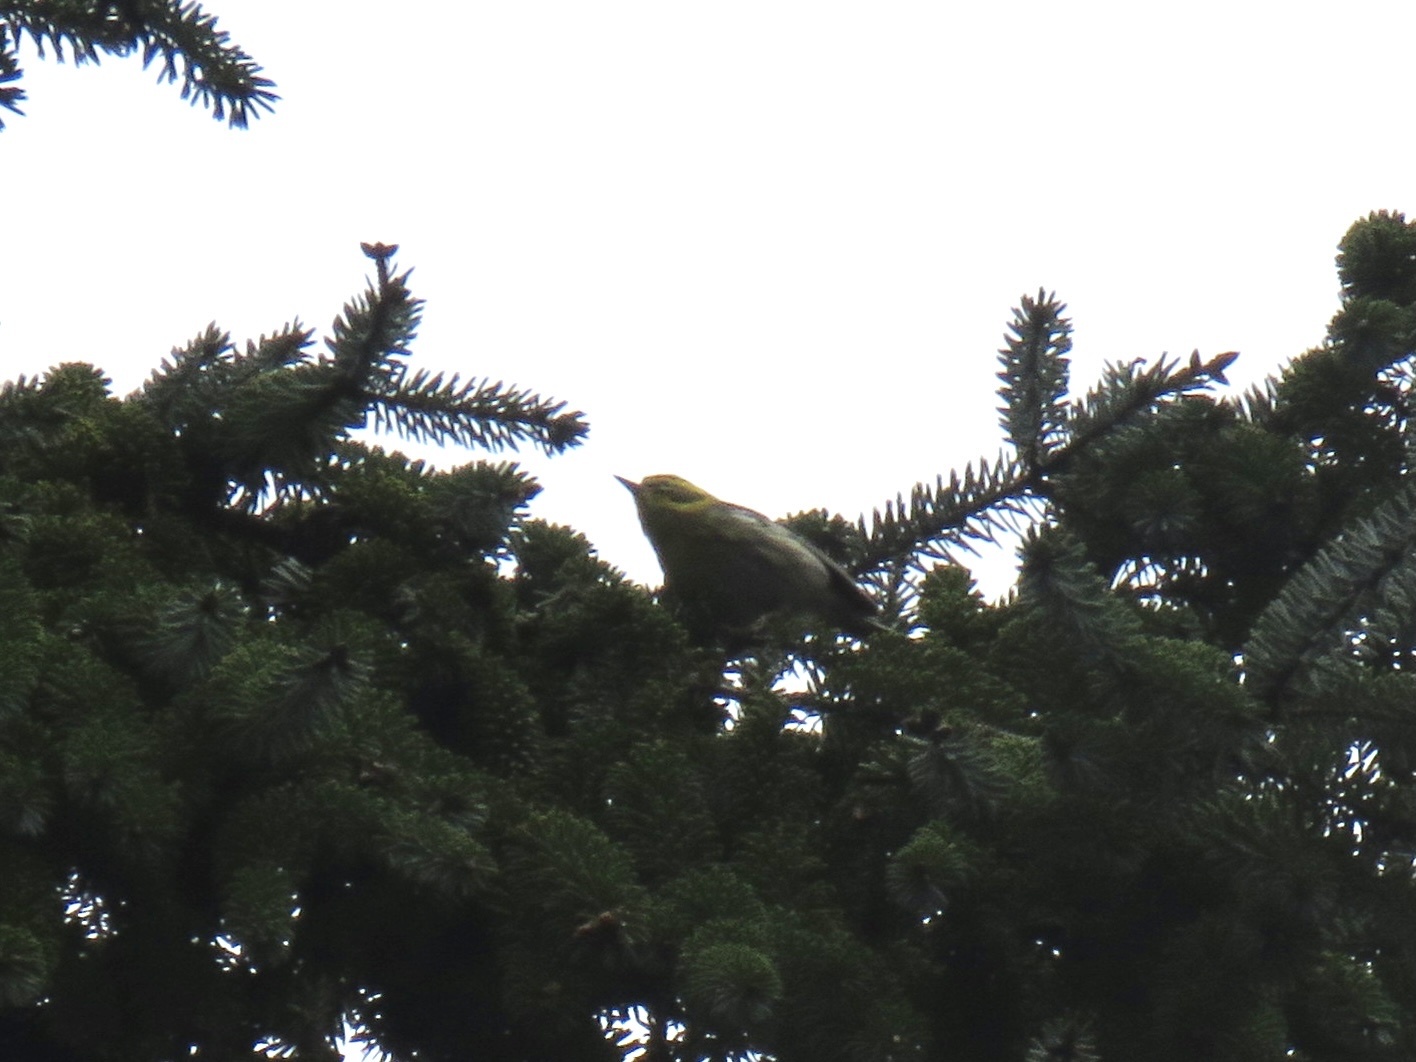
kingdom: Animalia
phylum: Chordata
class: Aves
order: Passeriformes
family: Parulidae
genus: Setophaga
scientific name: Setophaga townsendi
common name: Townsend's warbler
